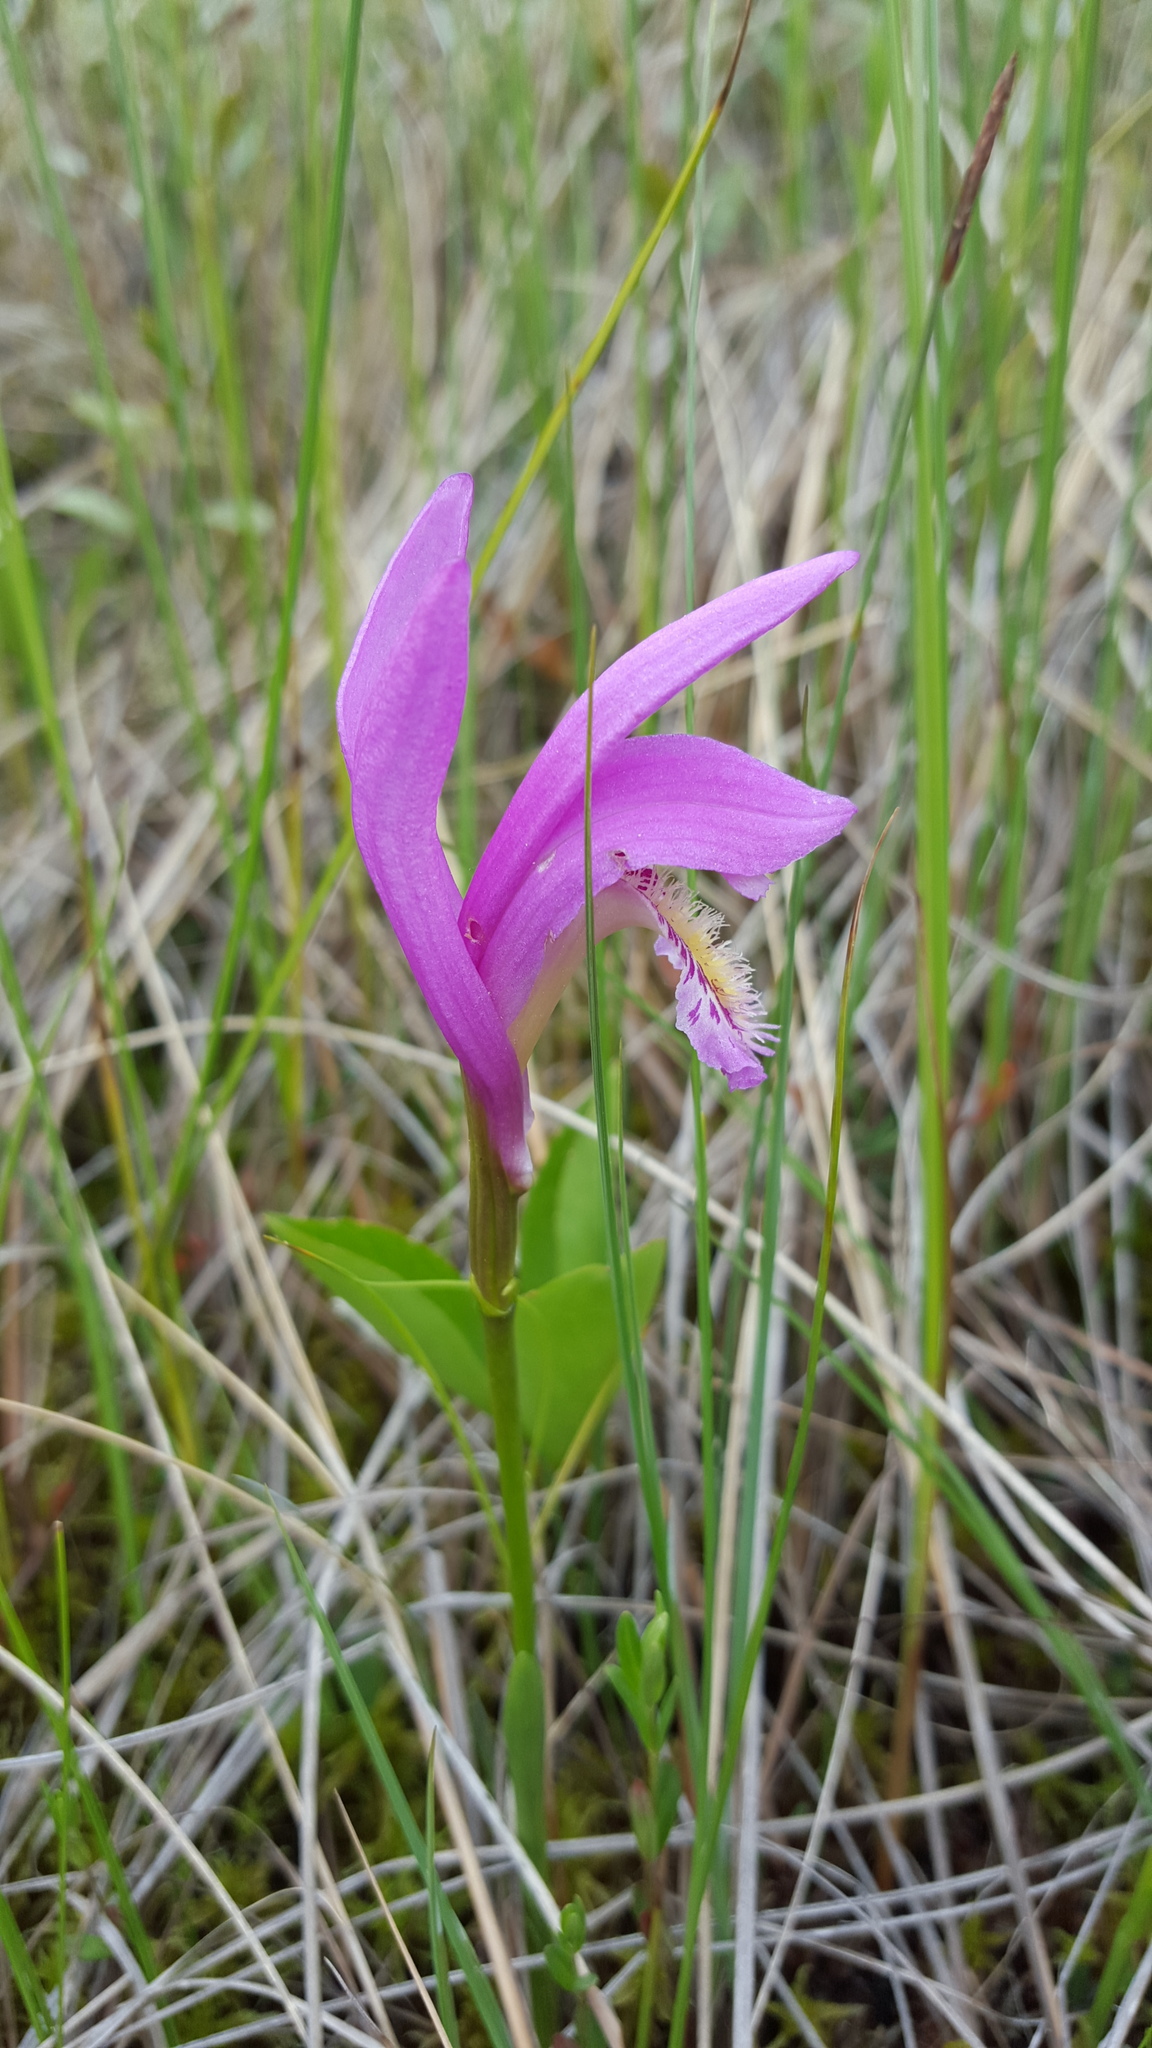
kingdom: Plantae
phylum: Tracheophyta
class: Liliopsida
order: Asparagales
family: Orchidaceae
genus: Arethusa
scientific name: Arethusa bulbosa
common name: Arethusa
